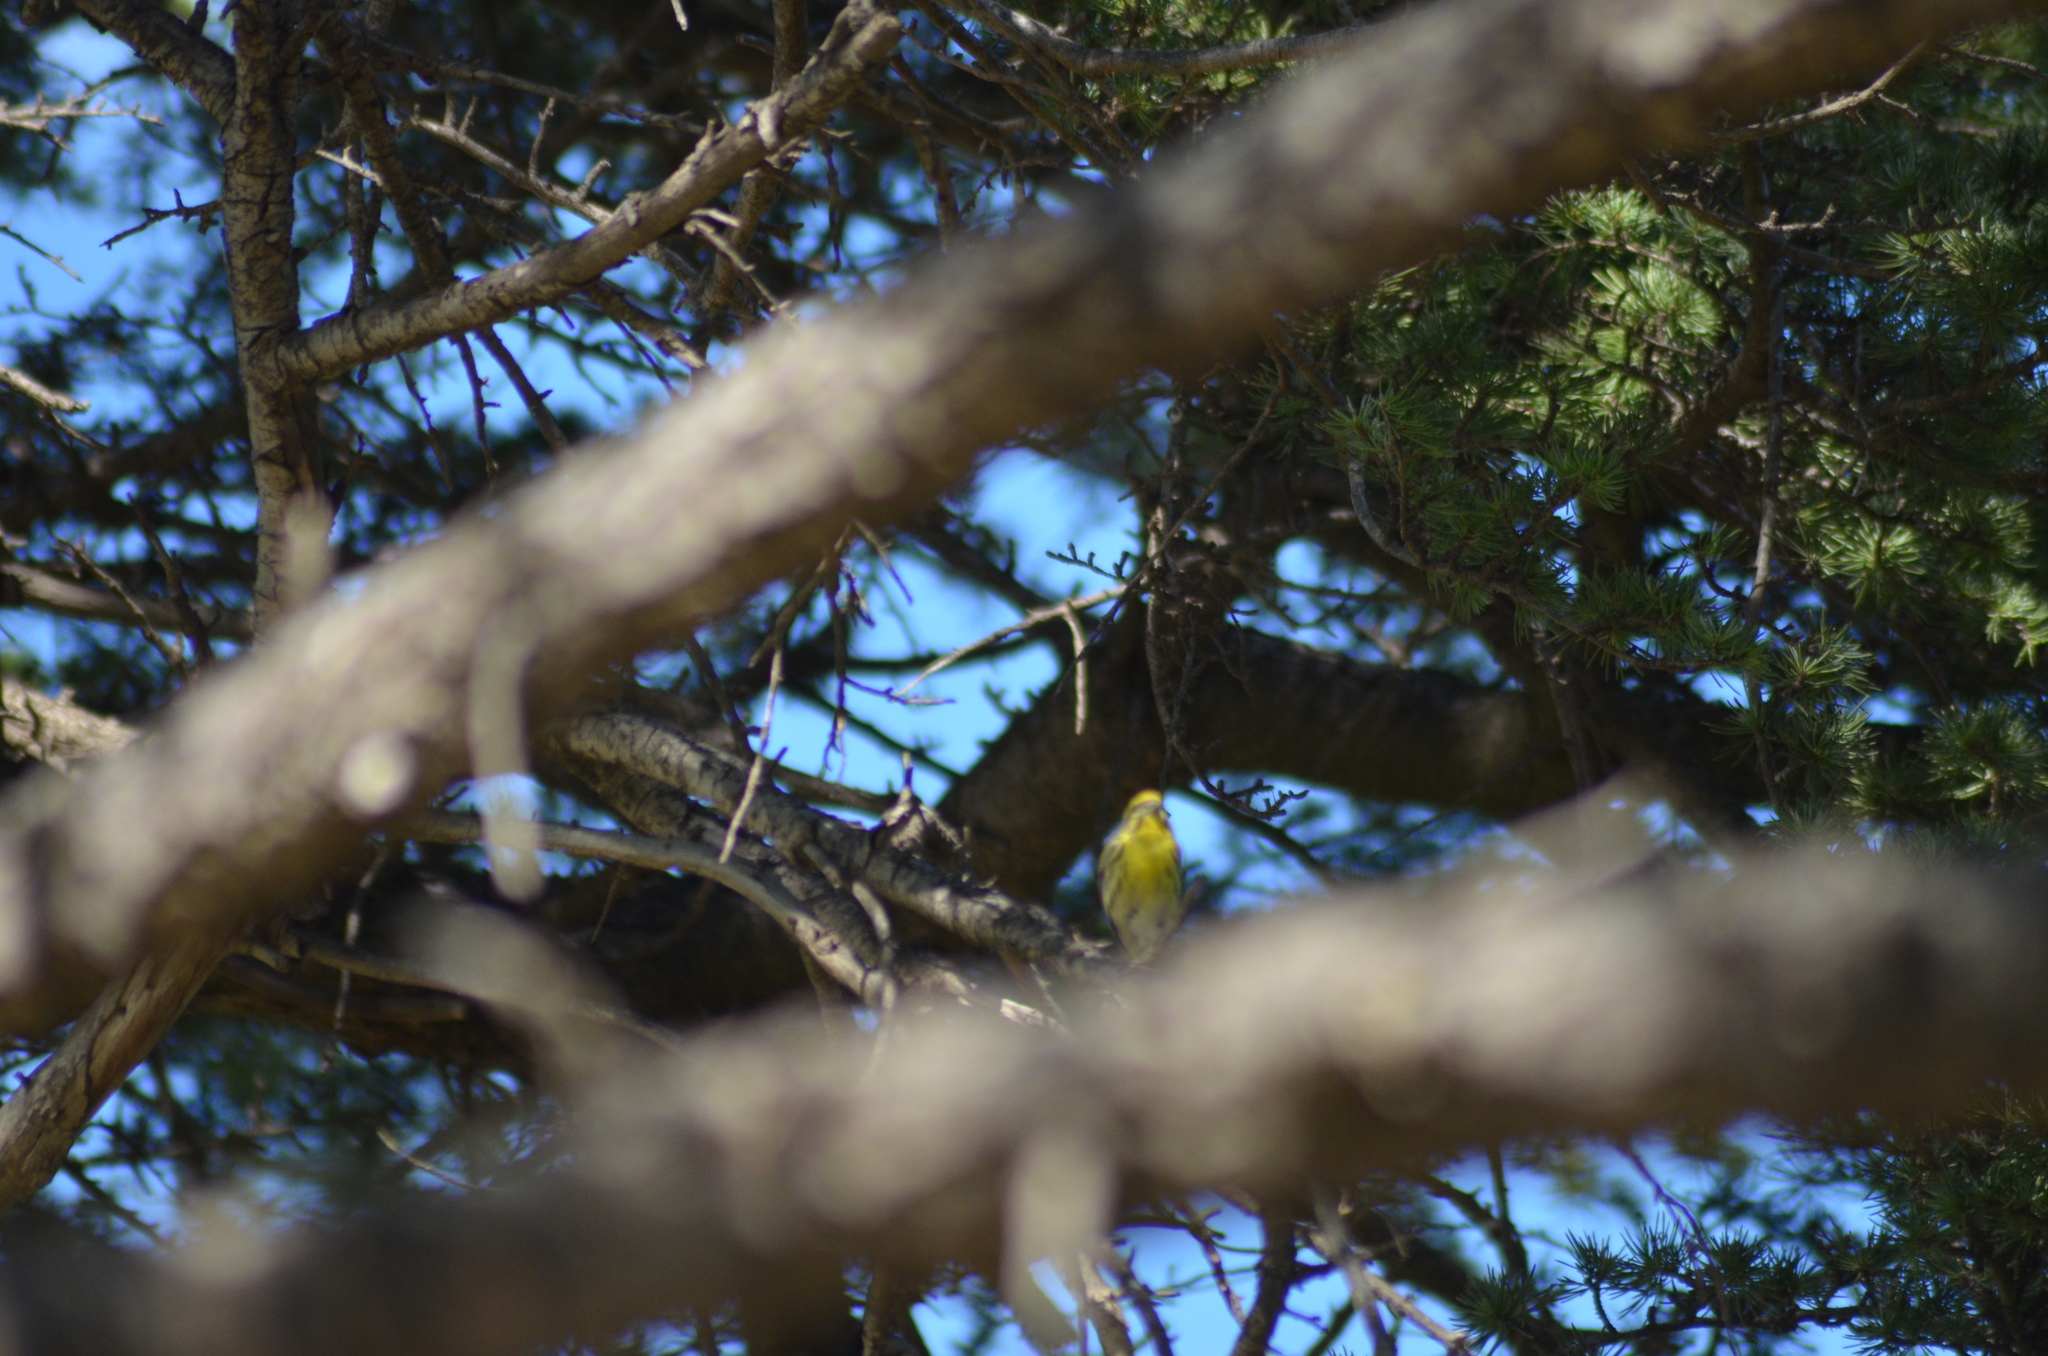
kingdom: Animalia
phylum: Chordata
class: Aves
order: Passeriformes
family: Fringillidae
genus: Serinus
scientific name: Serinus serinus
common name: European serin
